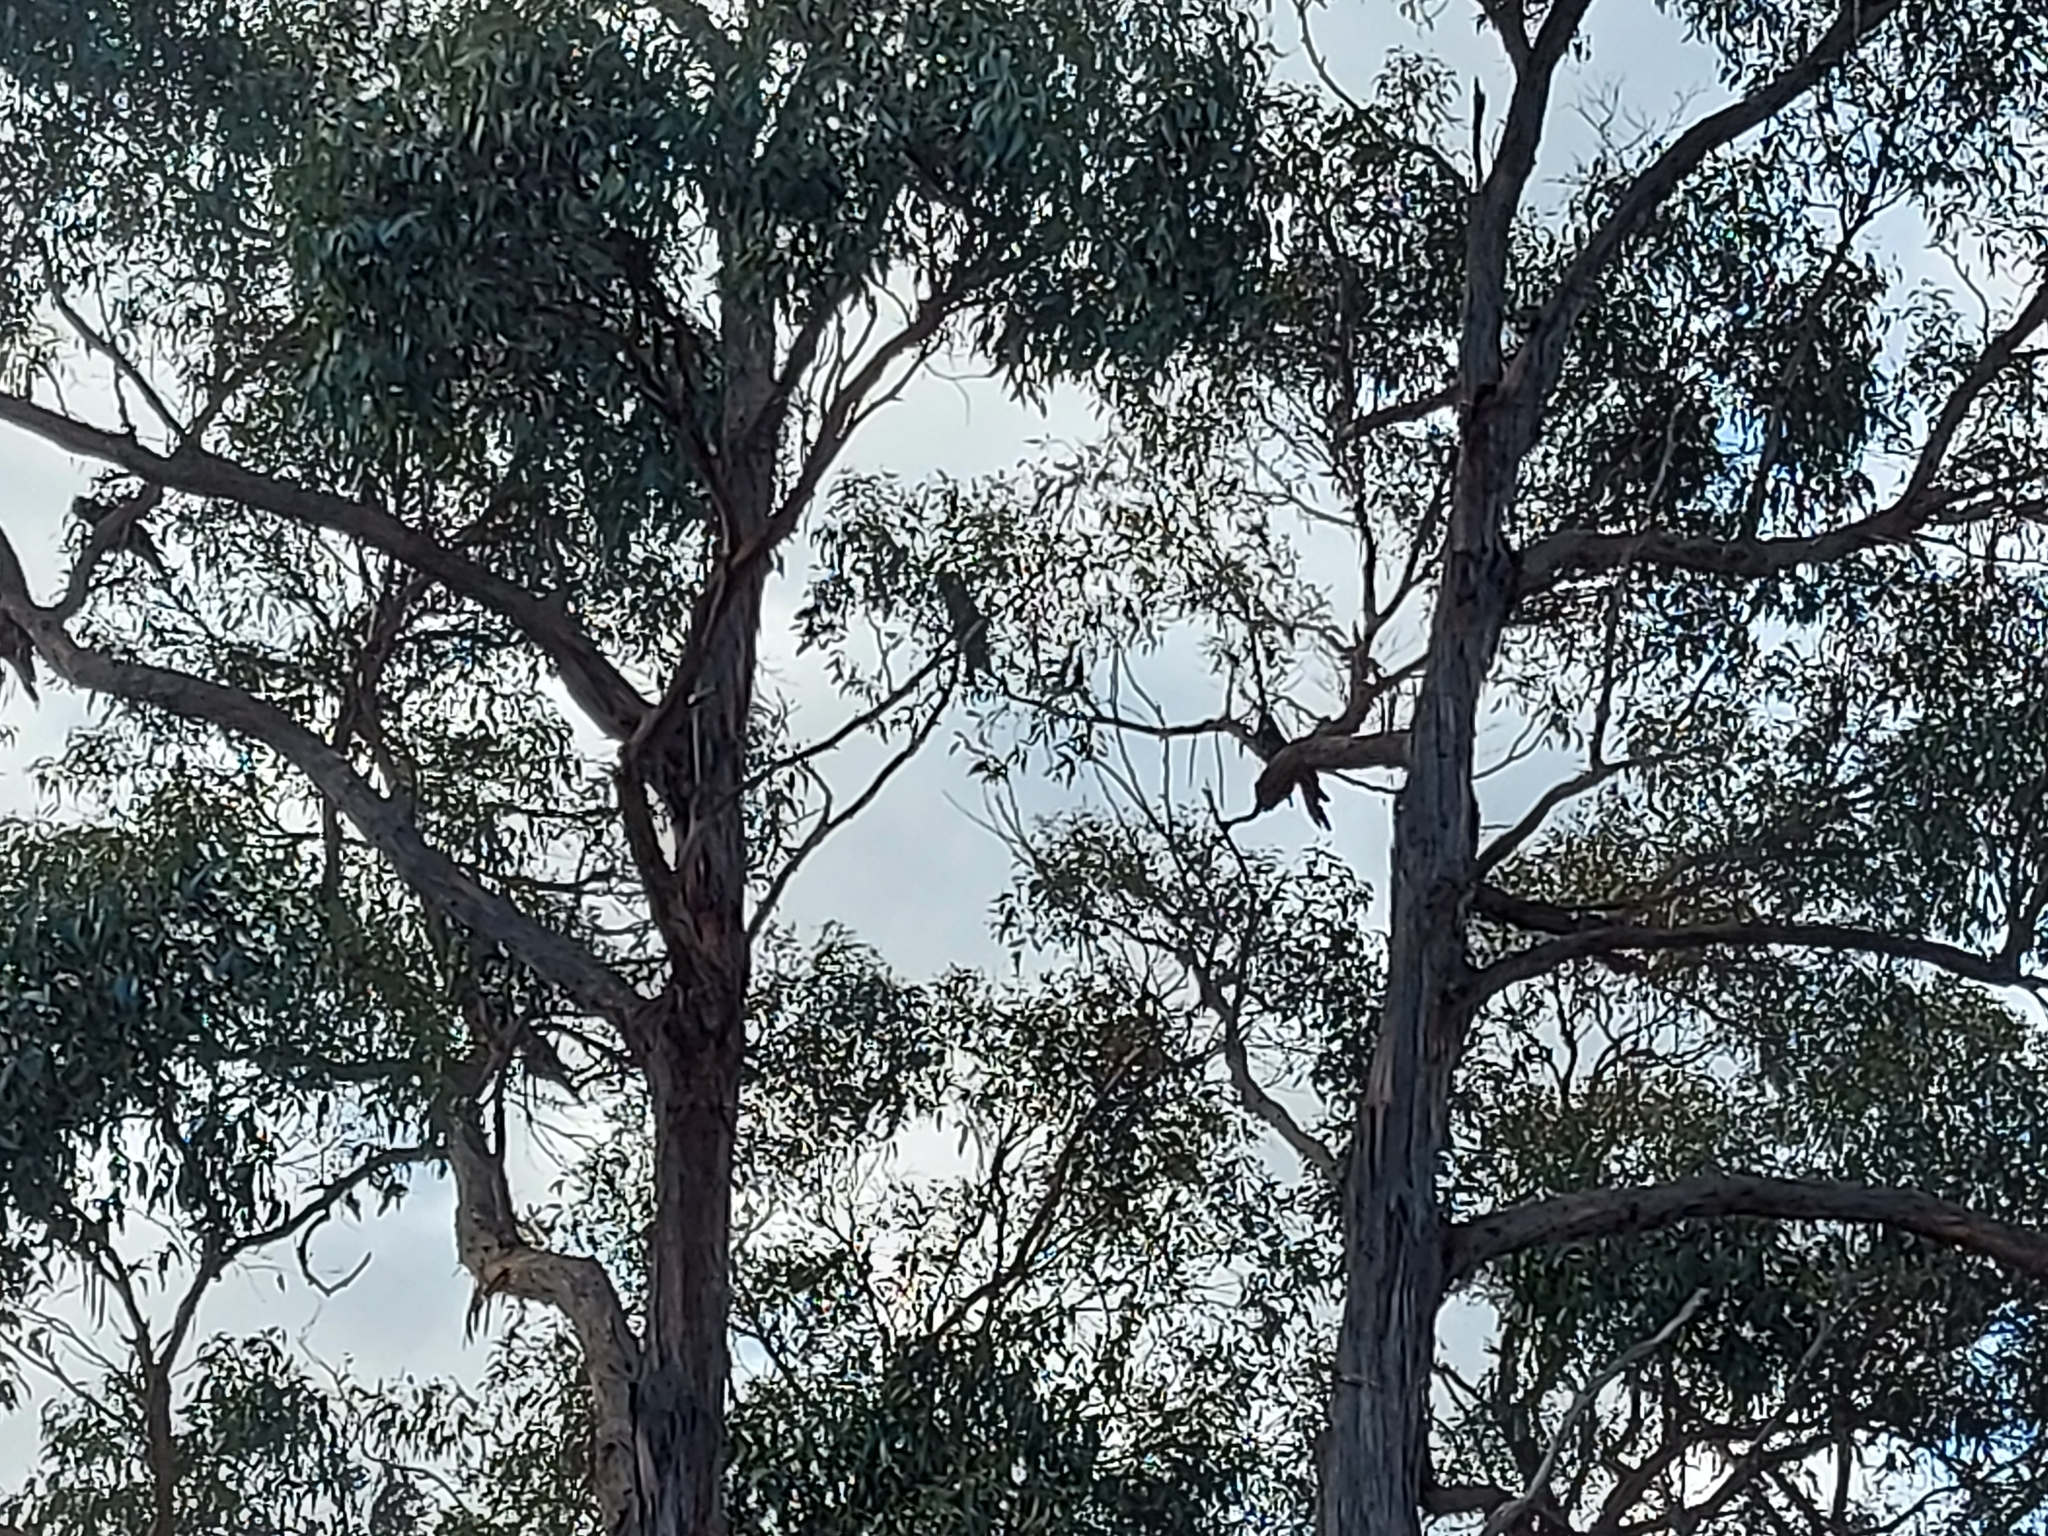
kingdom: Animalia
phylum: Chordata
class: Aves
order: Psittaciformes
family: Cacatuidae
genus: Zanda
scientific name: Zanda funerea
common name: Yellow-tailed black-cockatoo
